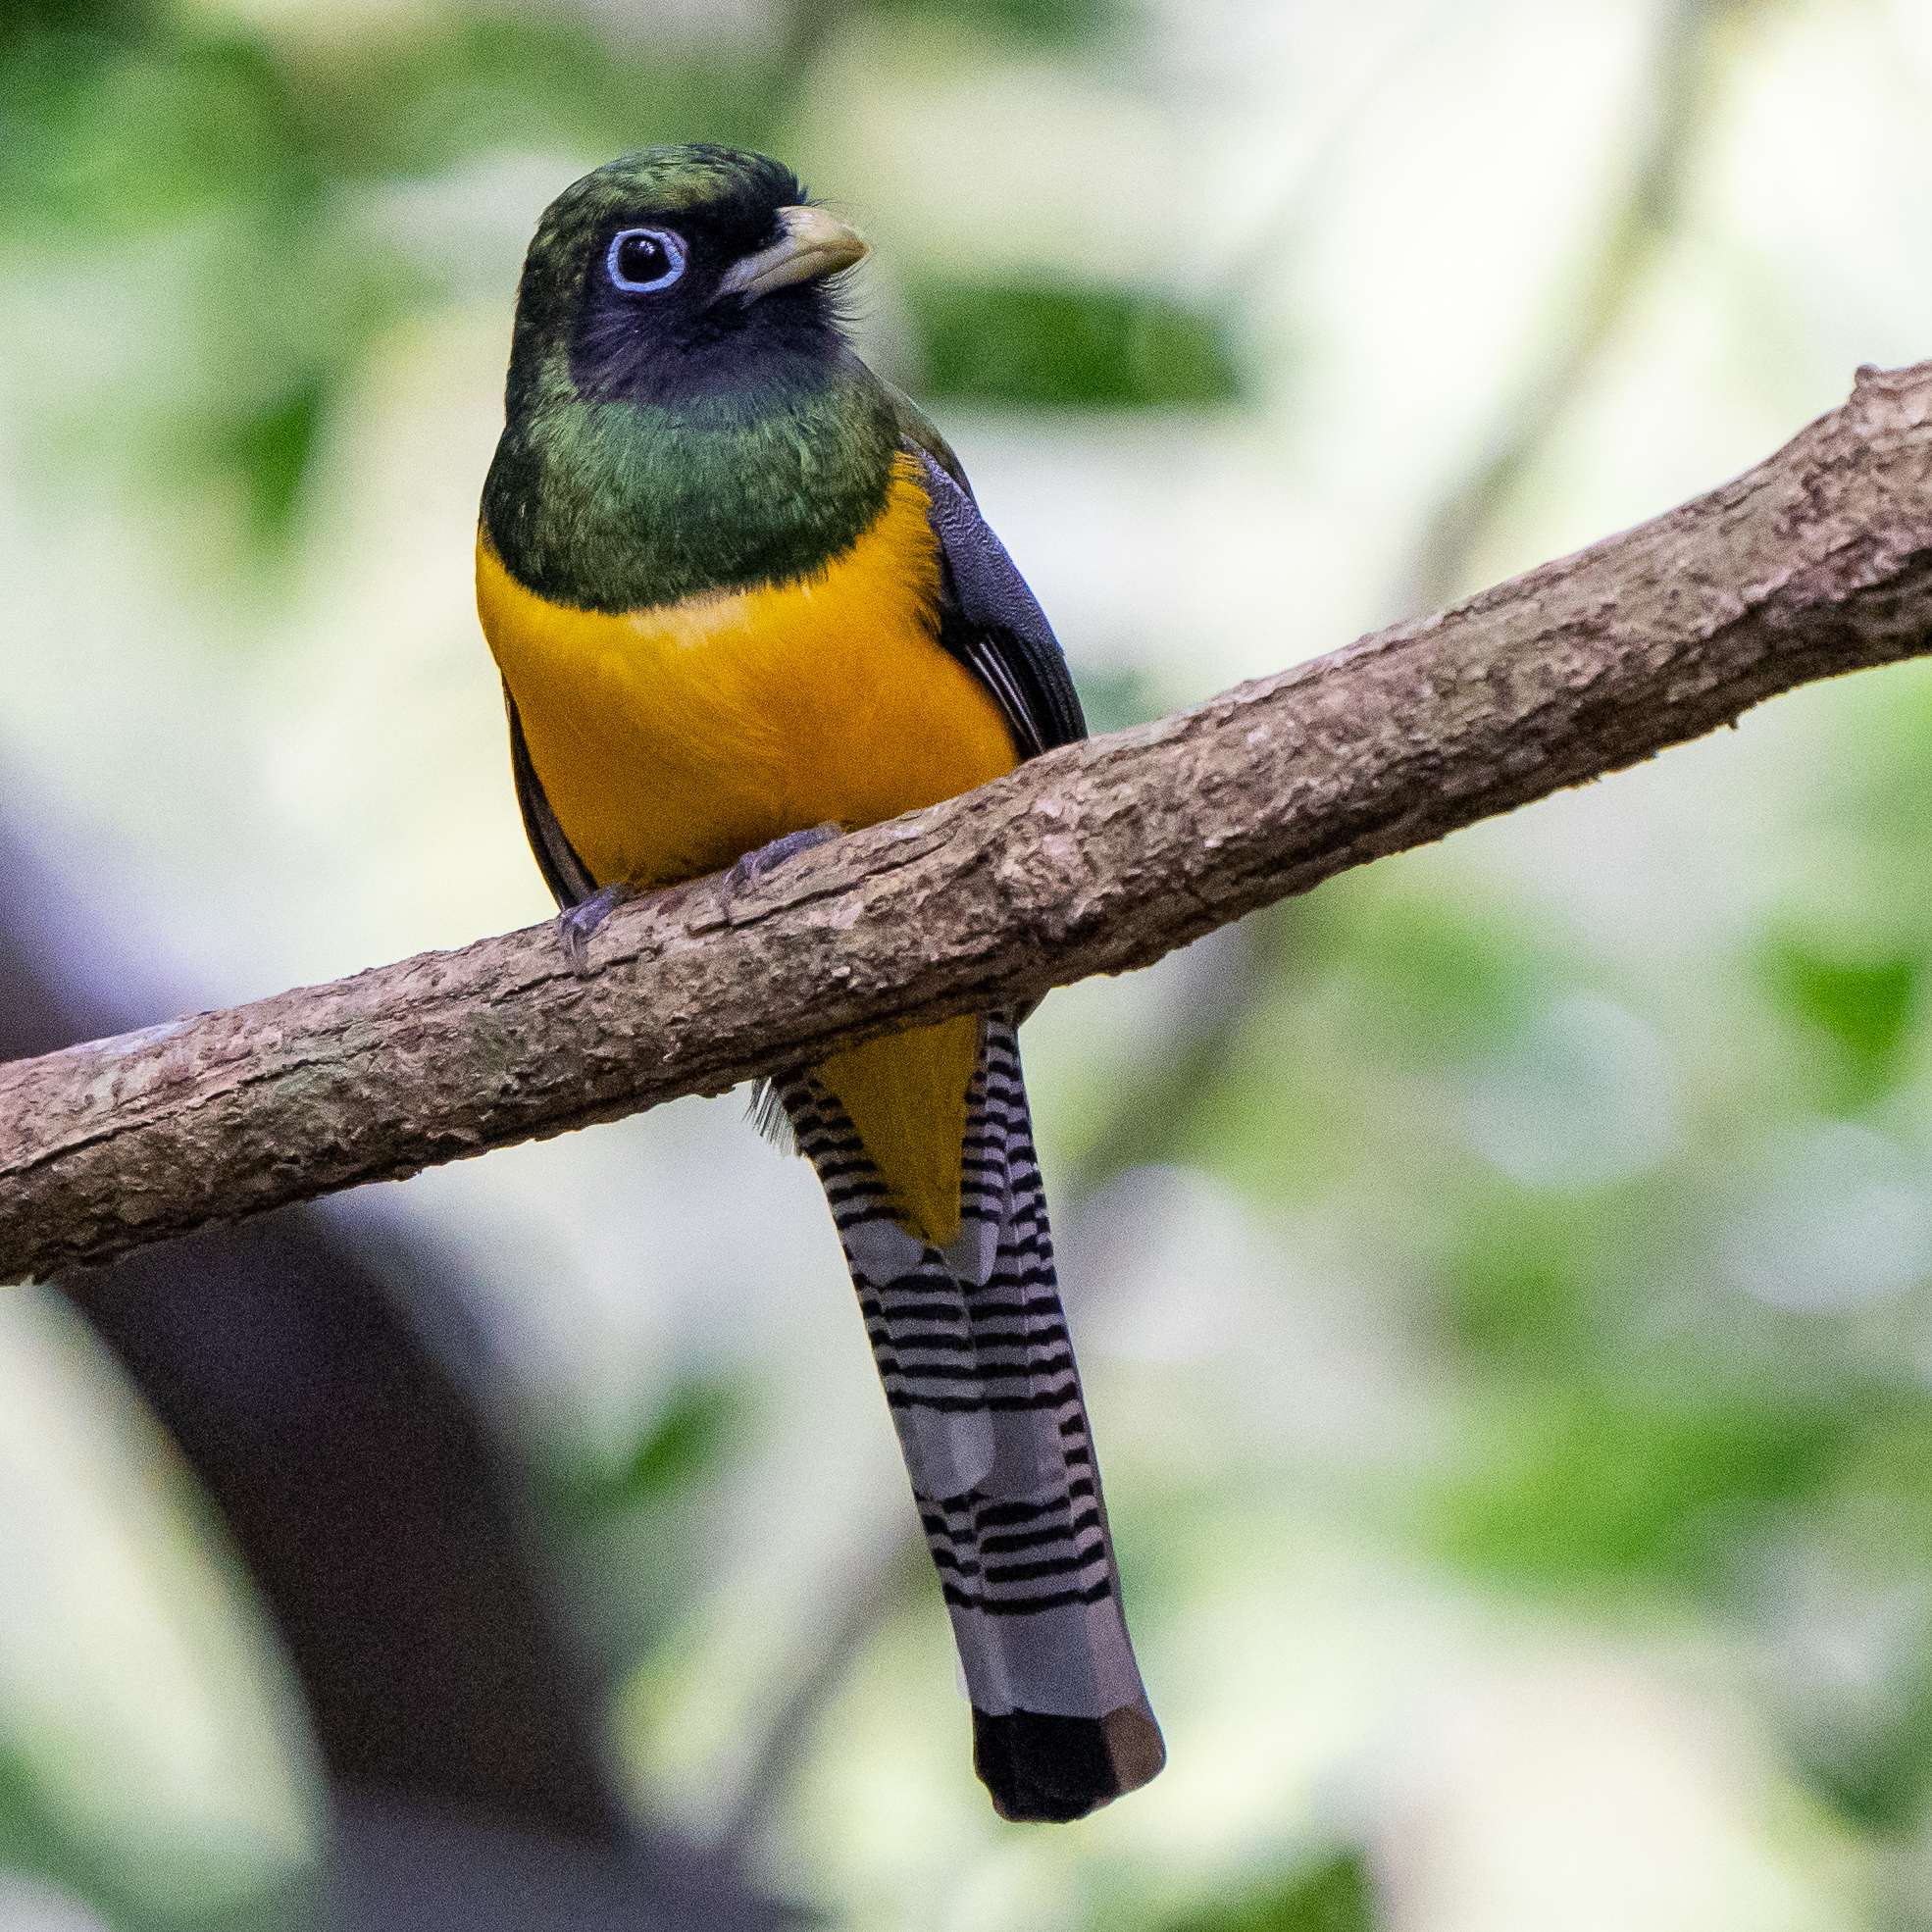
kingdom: Animalia
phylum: Chordata
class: Aves
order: Trogoniformes
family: Trogonidae
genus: Trogon
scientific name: Trogon rufus
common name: Black-throated trogon
